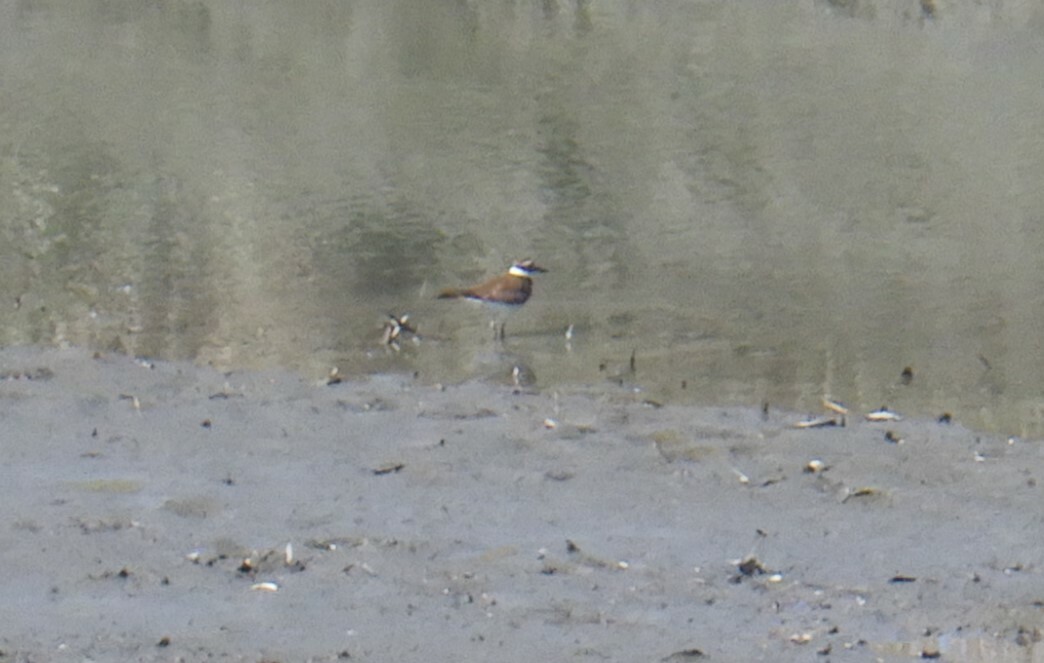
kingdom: Animalia
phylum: Chordata
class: Aves
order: Charadriiformes
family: Charadriidae
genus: Charadrius
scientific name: Charadrius vociferus
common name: Killdeer
